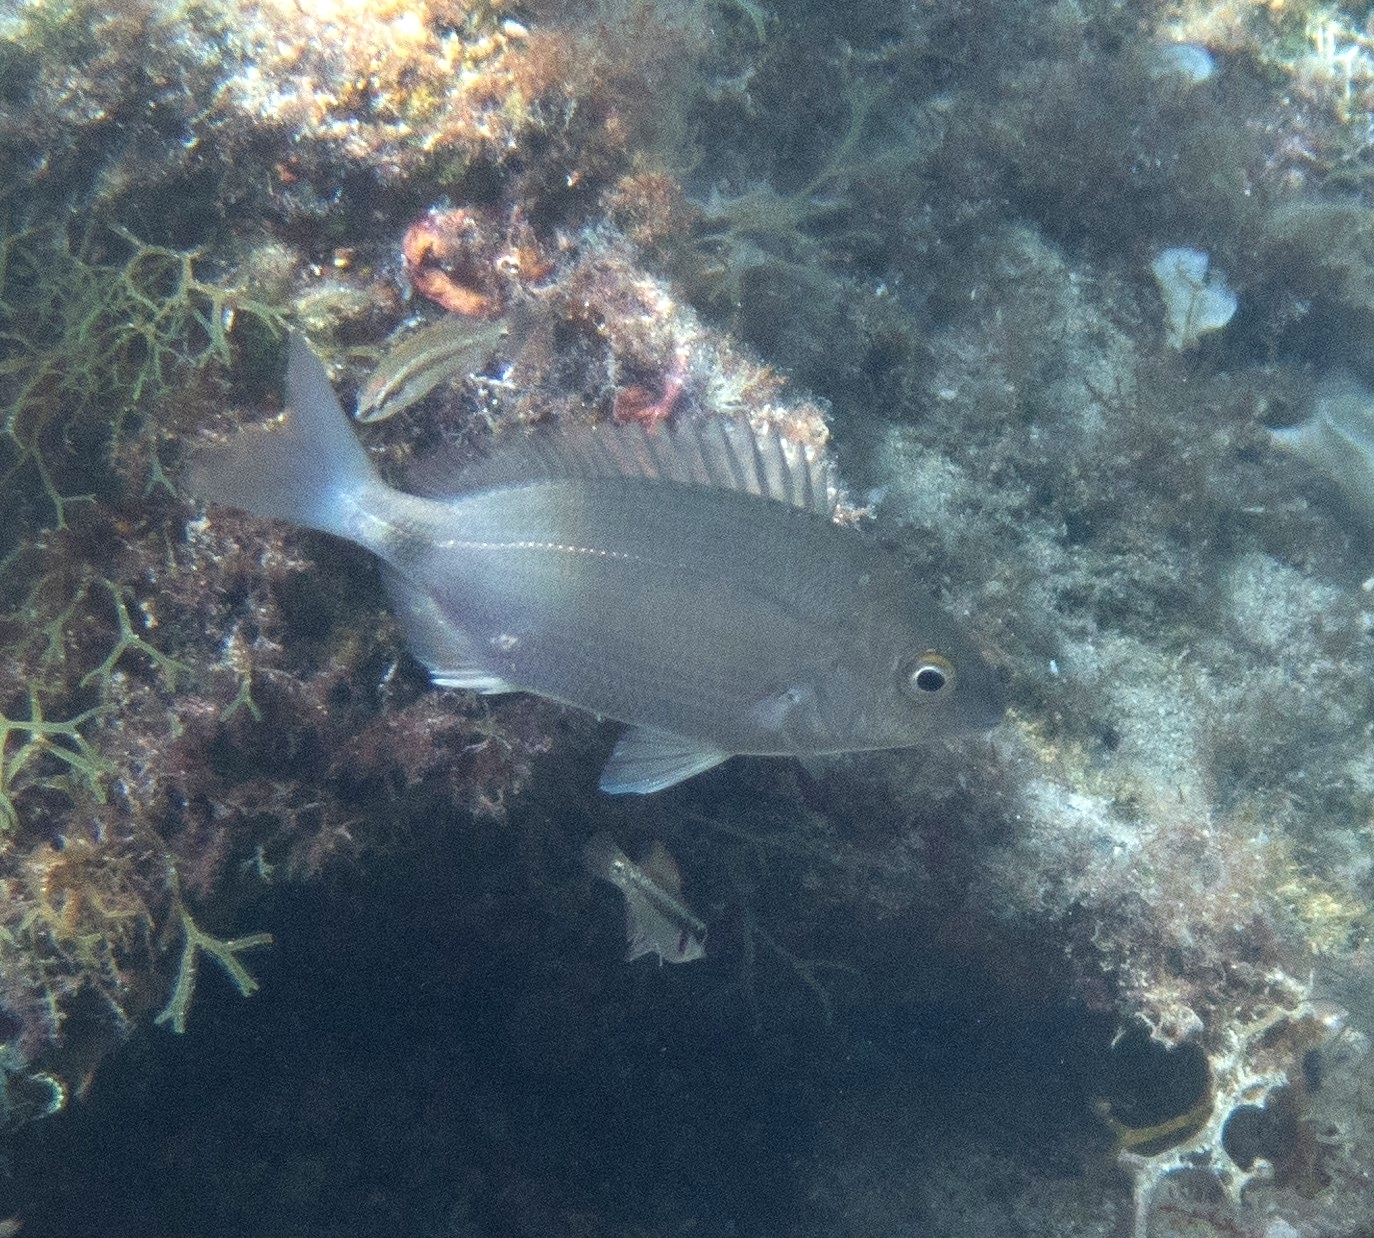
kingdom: Animalia
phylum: Chordata
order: Perciformes
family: Sparidae
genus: Diplodus
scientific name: Diplodus annularis
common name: Annular seabream
